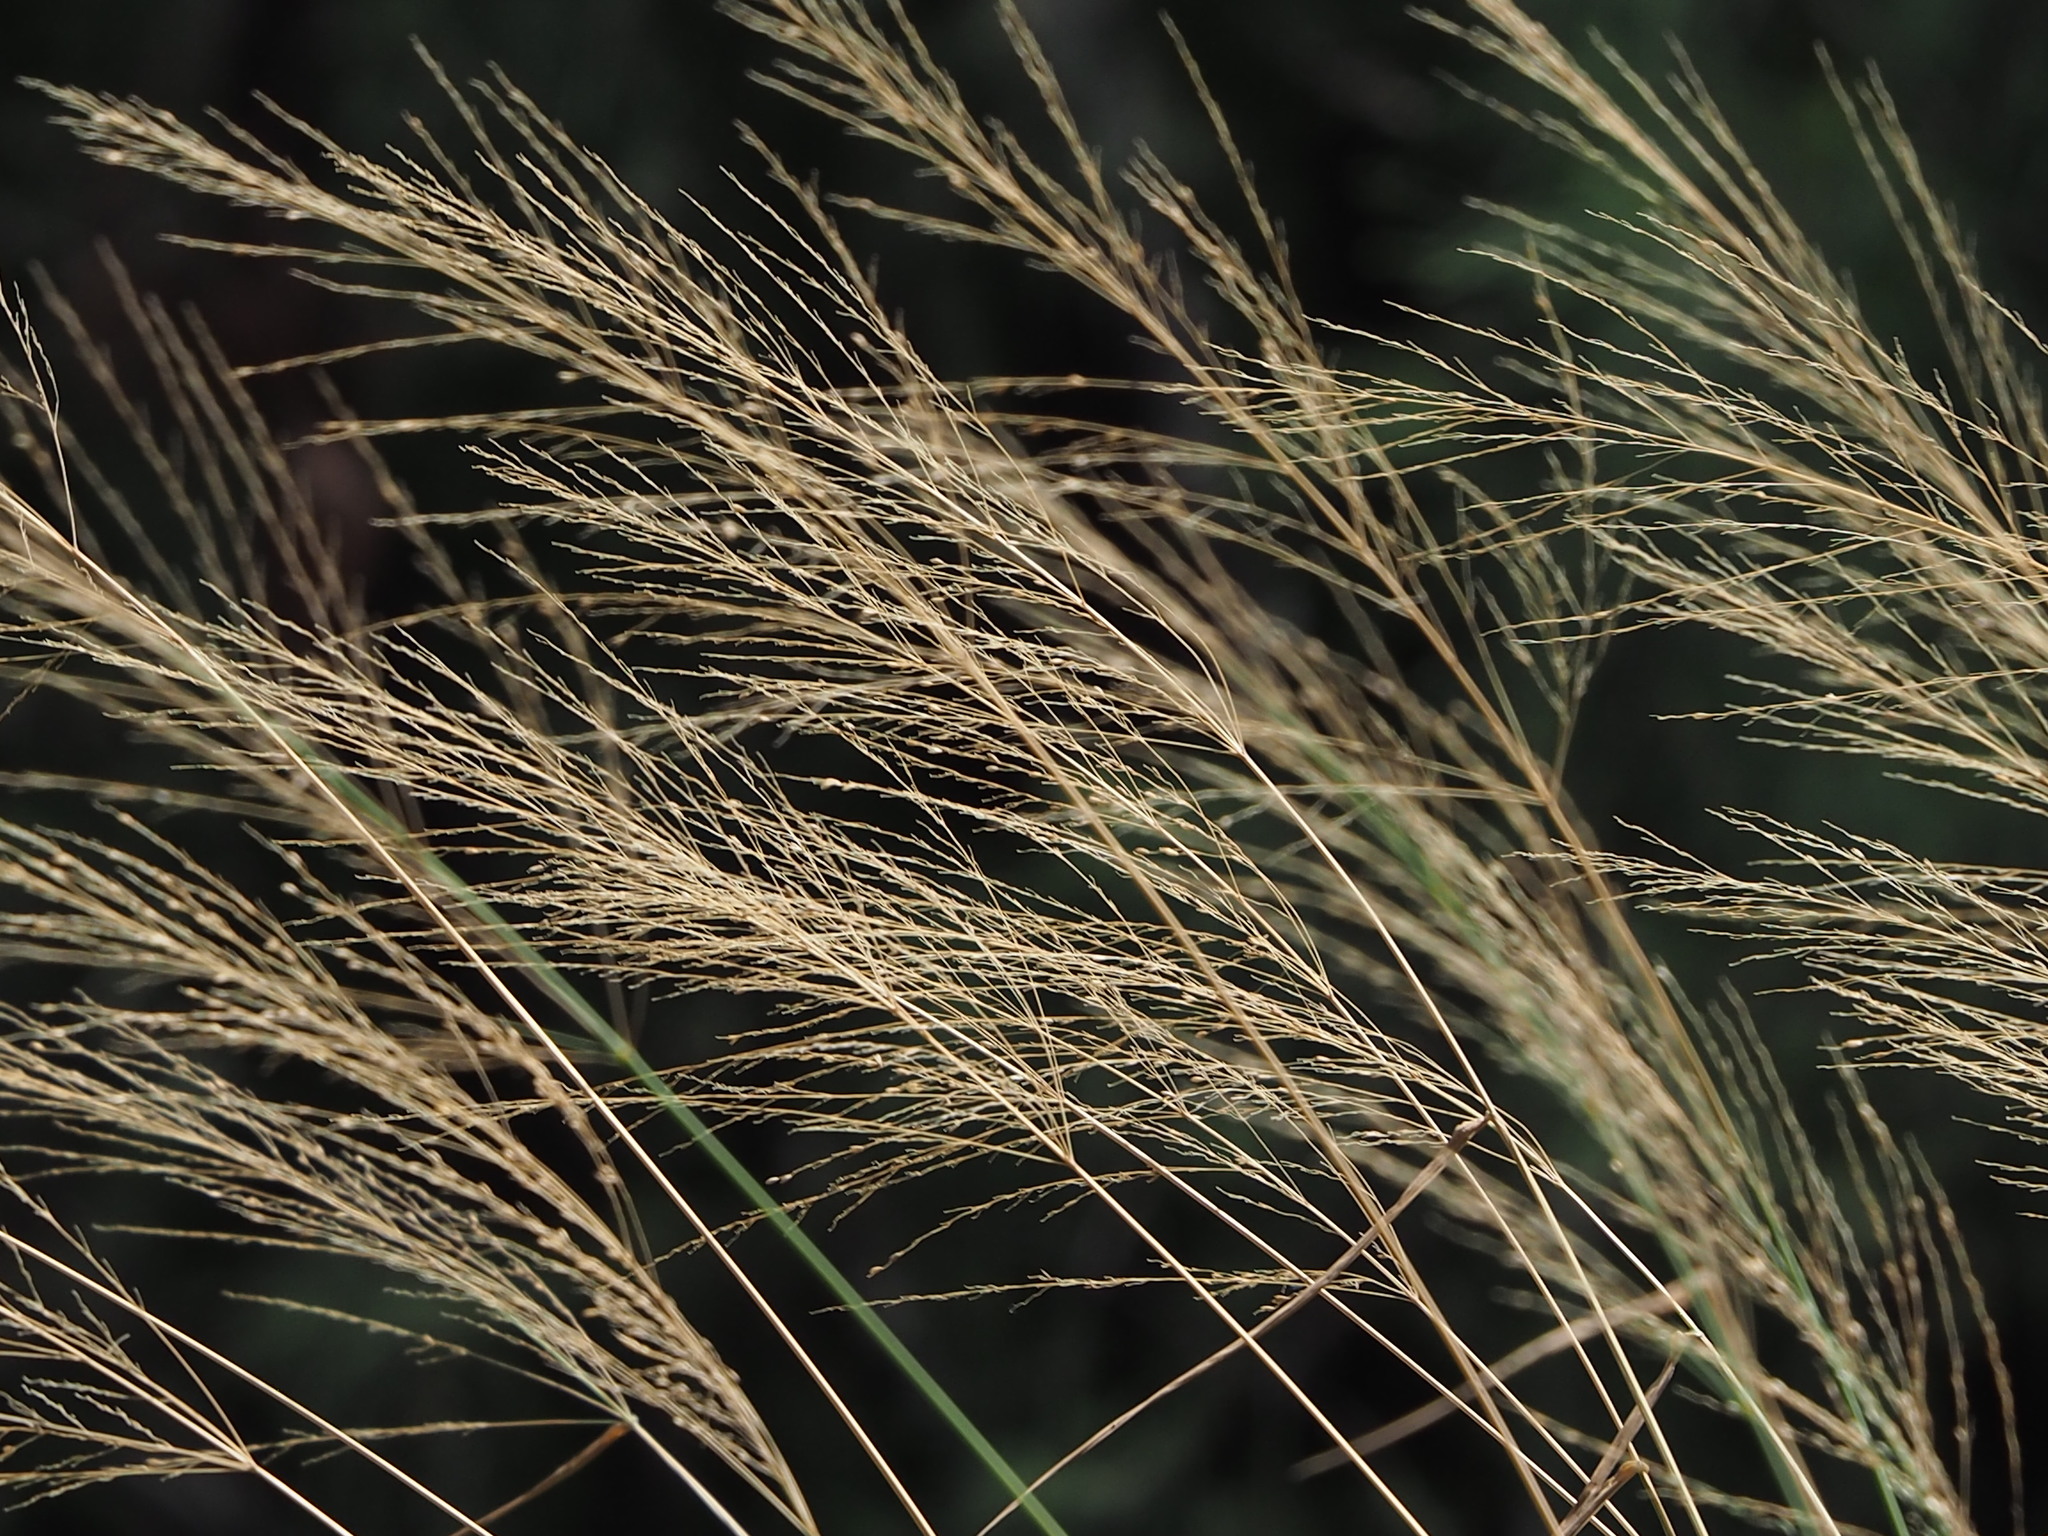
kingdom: Plantae
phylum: Tracheophyta
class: Liliopsida
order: Poales
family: Poaceae
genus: Megathyrsus
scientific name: Megathyrsus maximus
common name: Guineagrass
